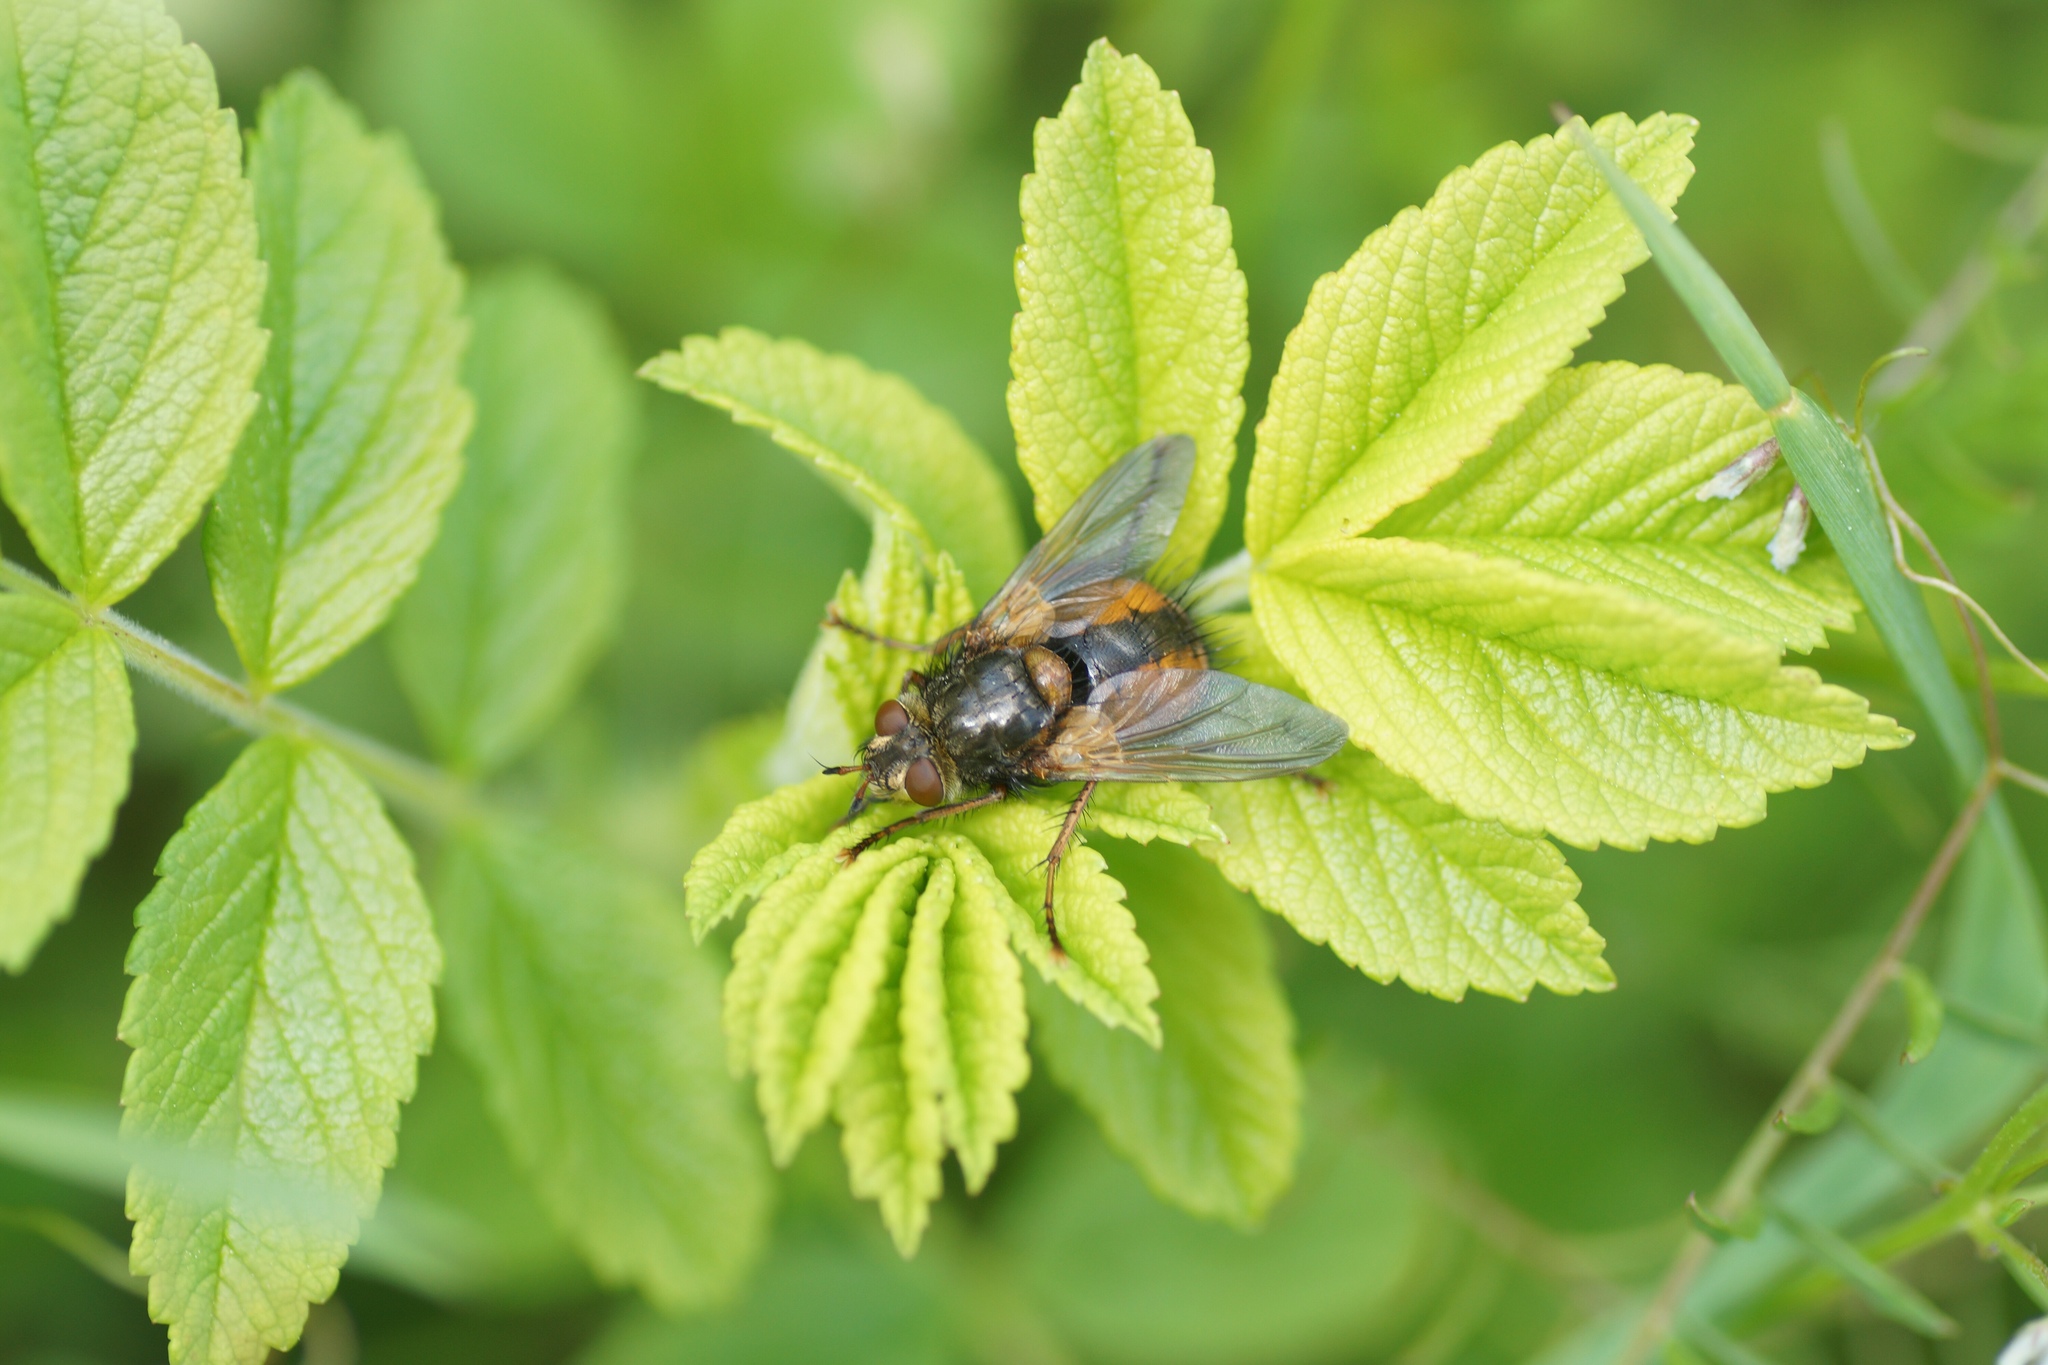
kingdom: Animalia
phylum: Arthropoda
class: Insecta
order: Diptera
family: Tachinidae
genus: Tachina
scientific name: Tachina fera
